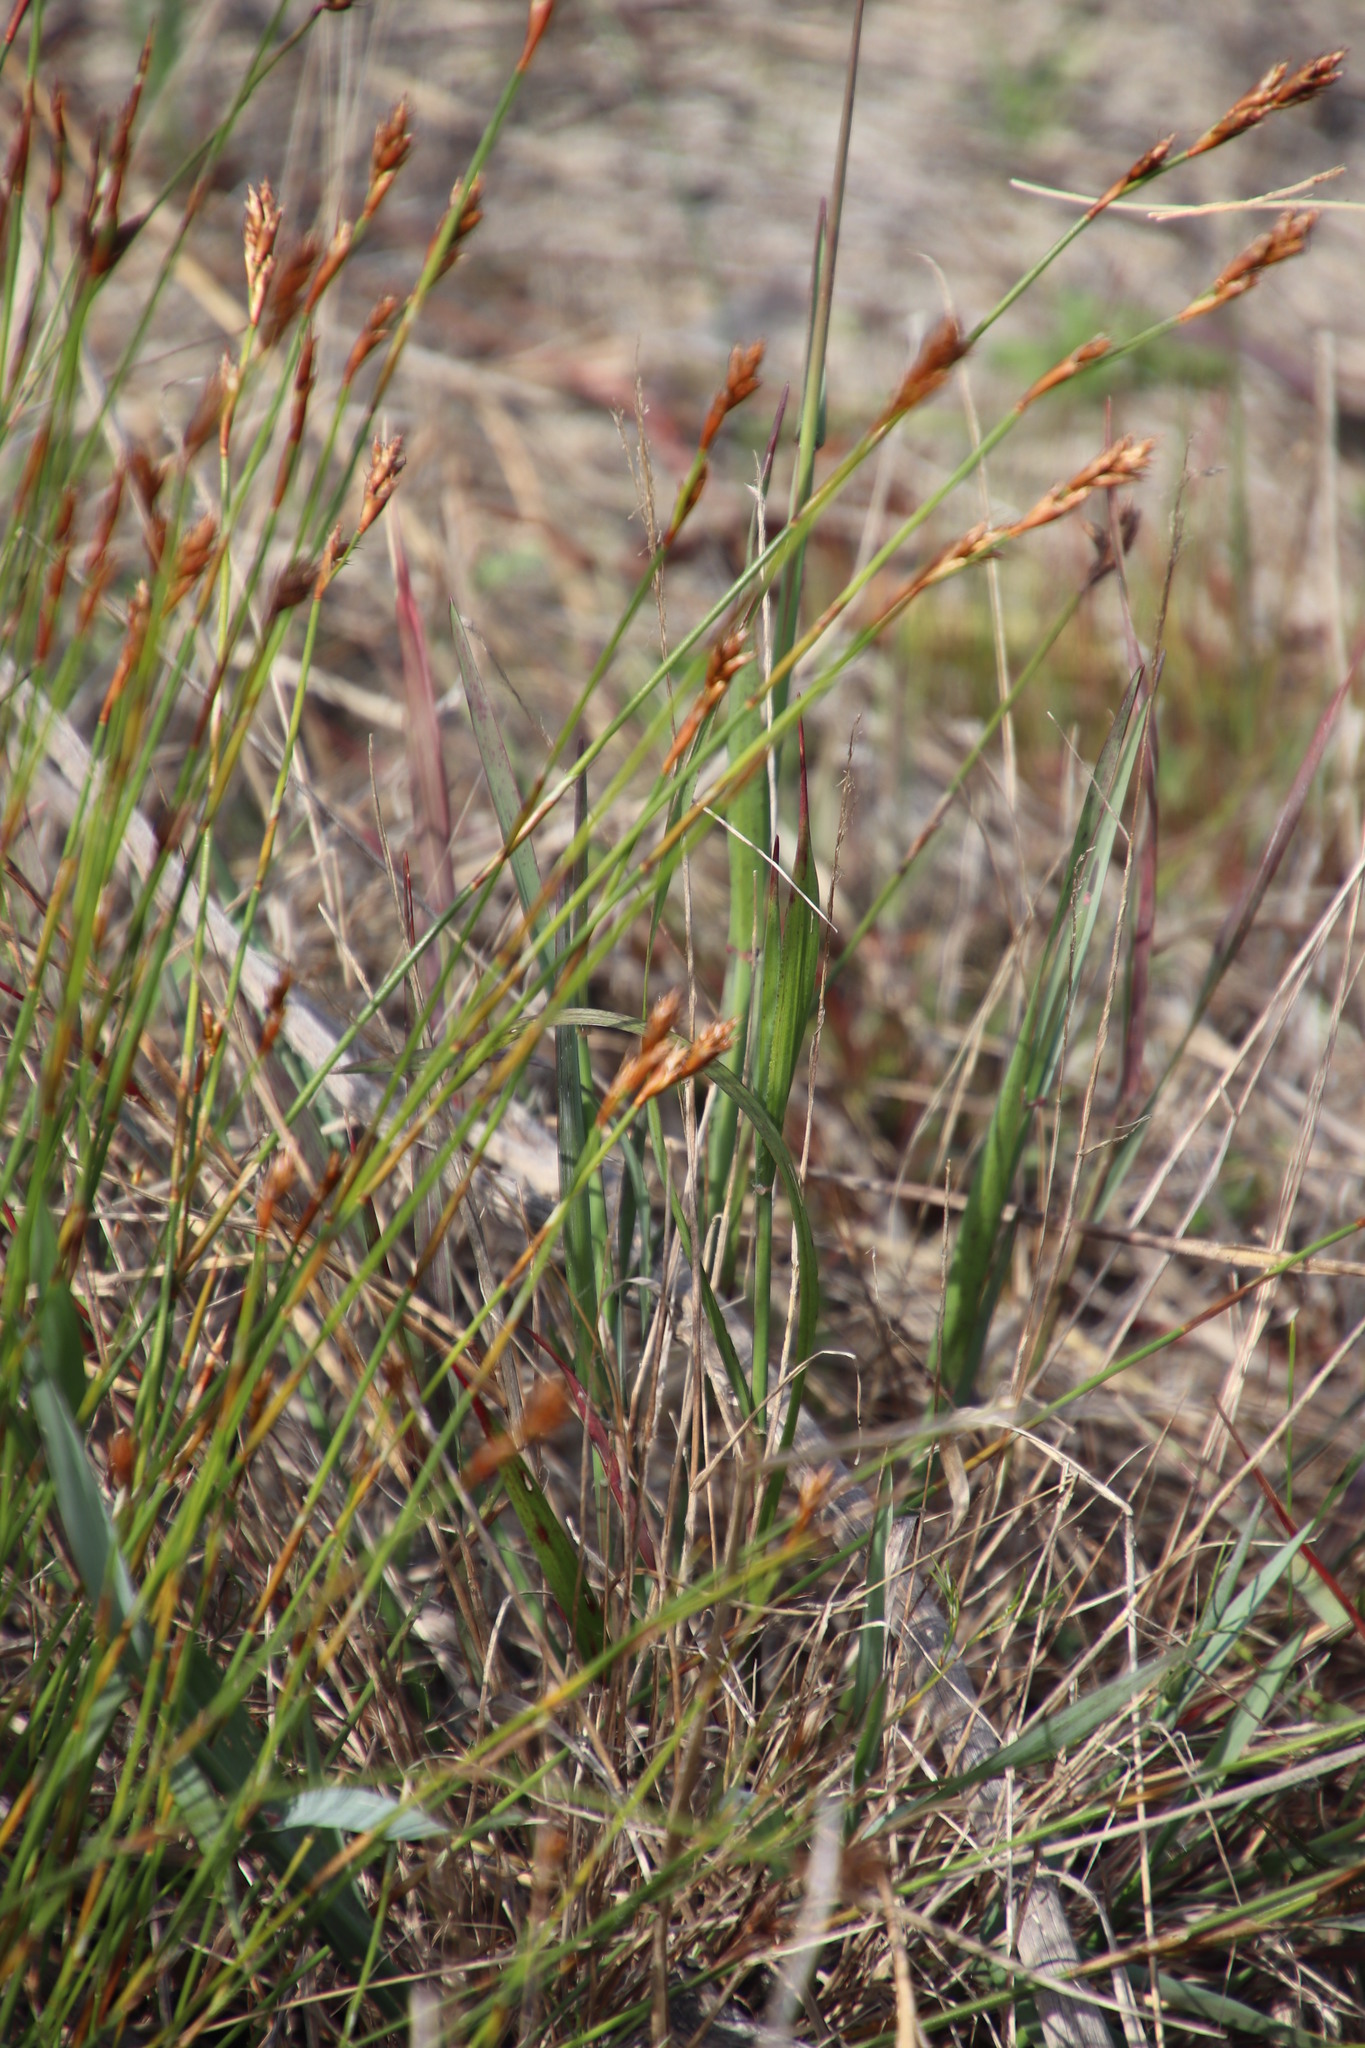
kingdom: Plantae
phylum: Tracheophyta
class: Liliopsida
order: Poales
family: Restionaceae
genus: Restio
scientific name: Restio capensis
